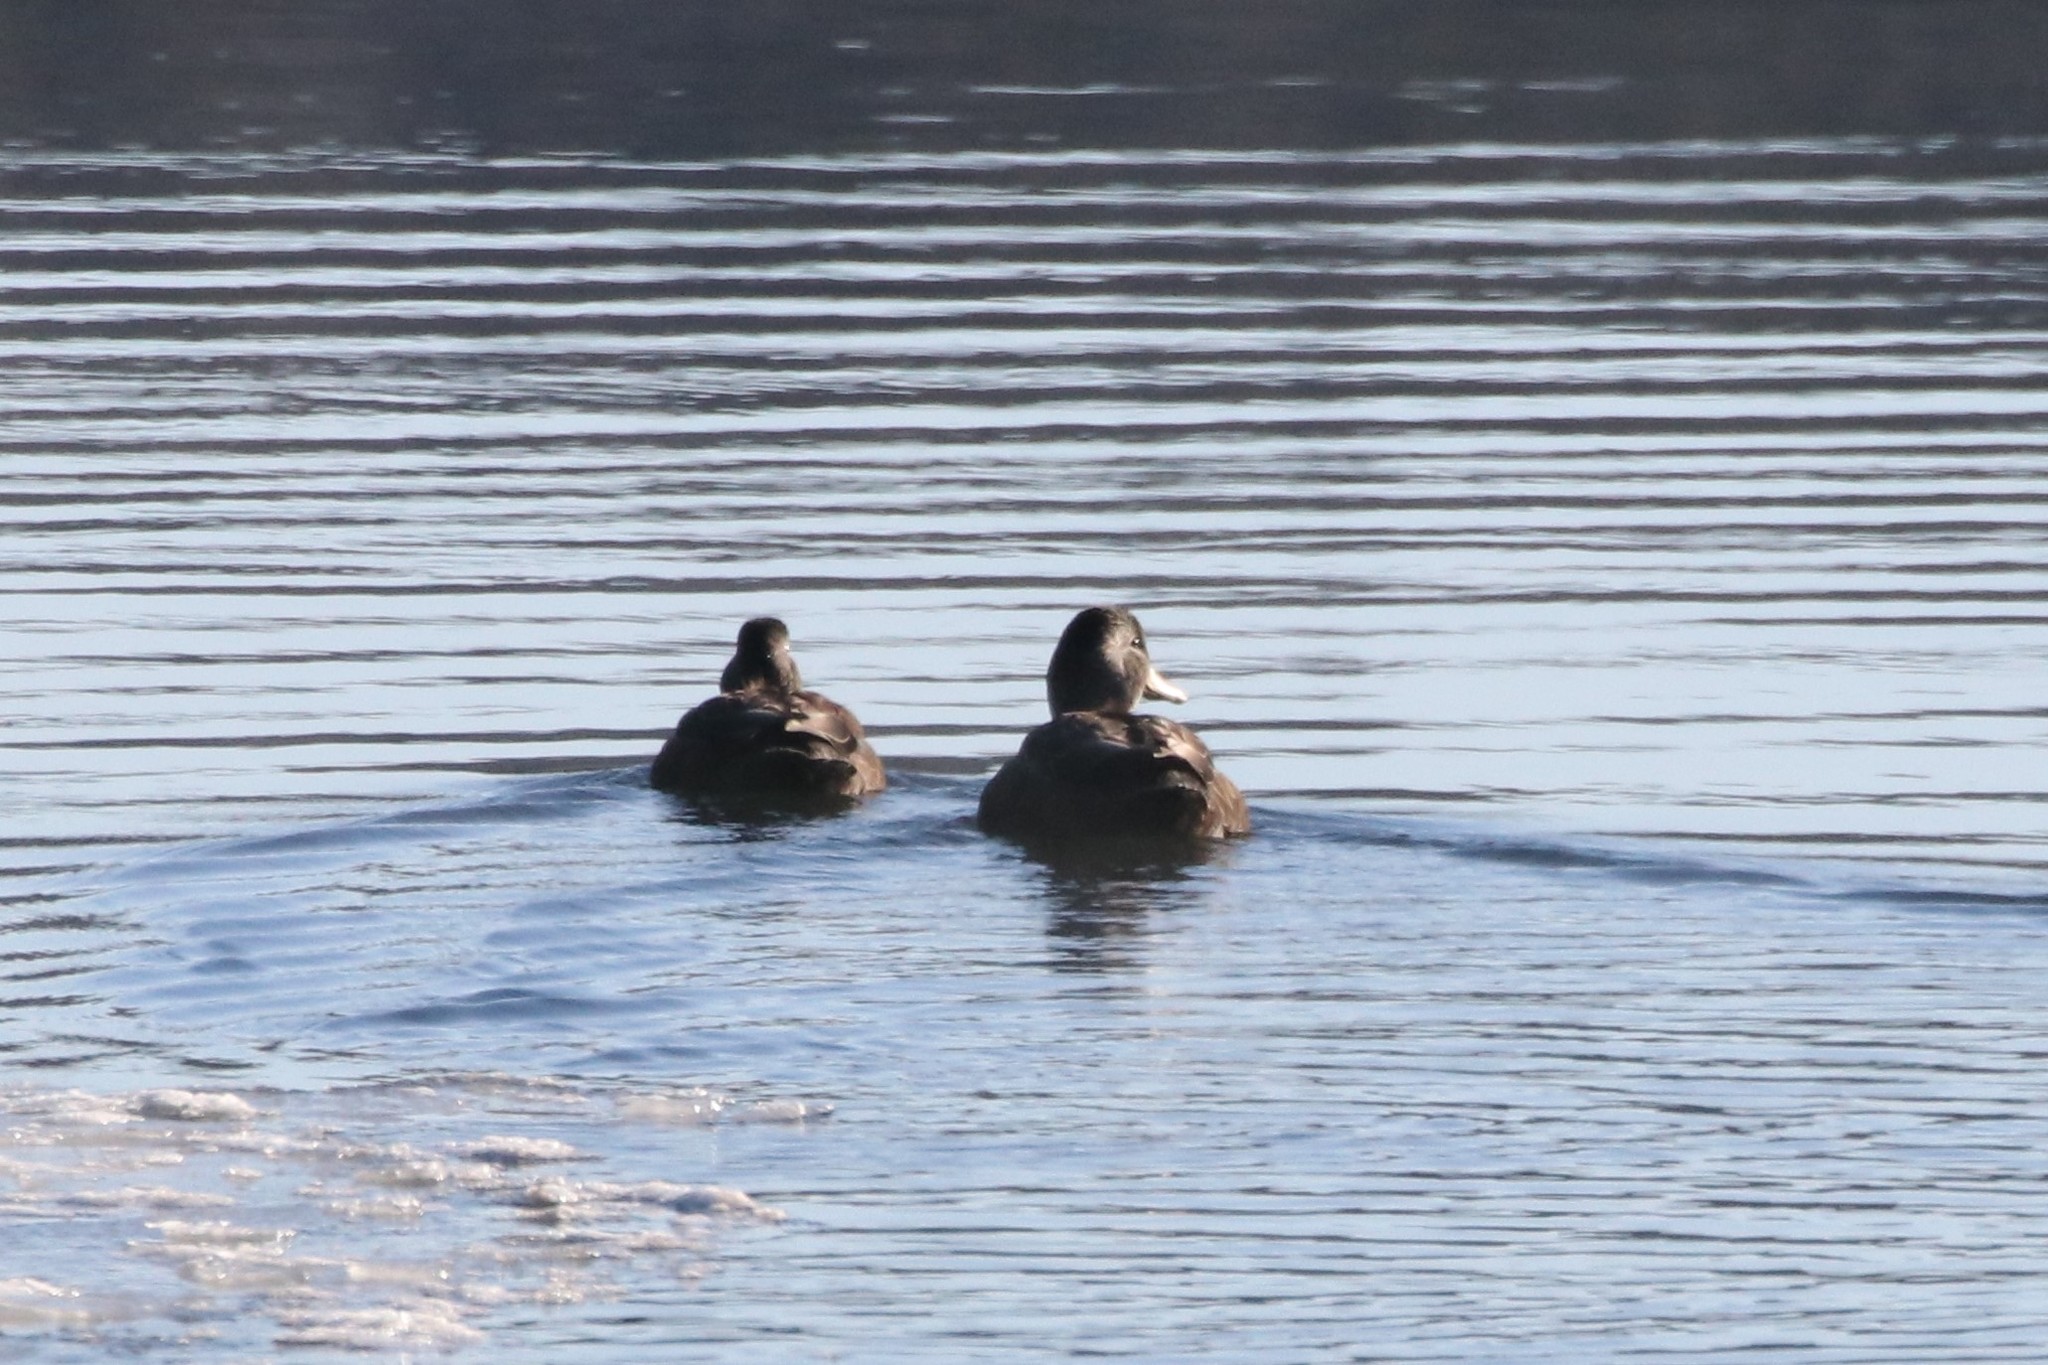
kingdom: Animalia
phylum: Chordata
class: Aves
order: Anseriformes
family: Anatidae
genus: Anas
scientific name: Anas rubripes
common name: American black duck
